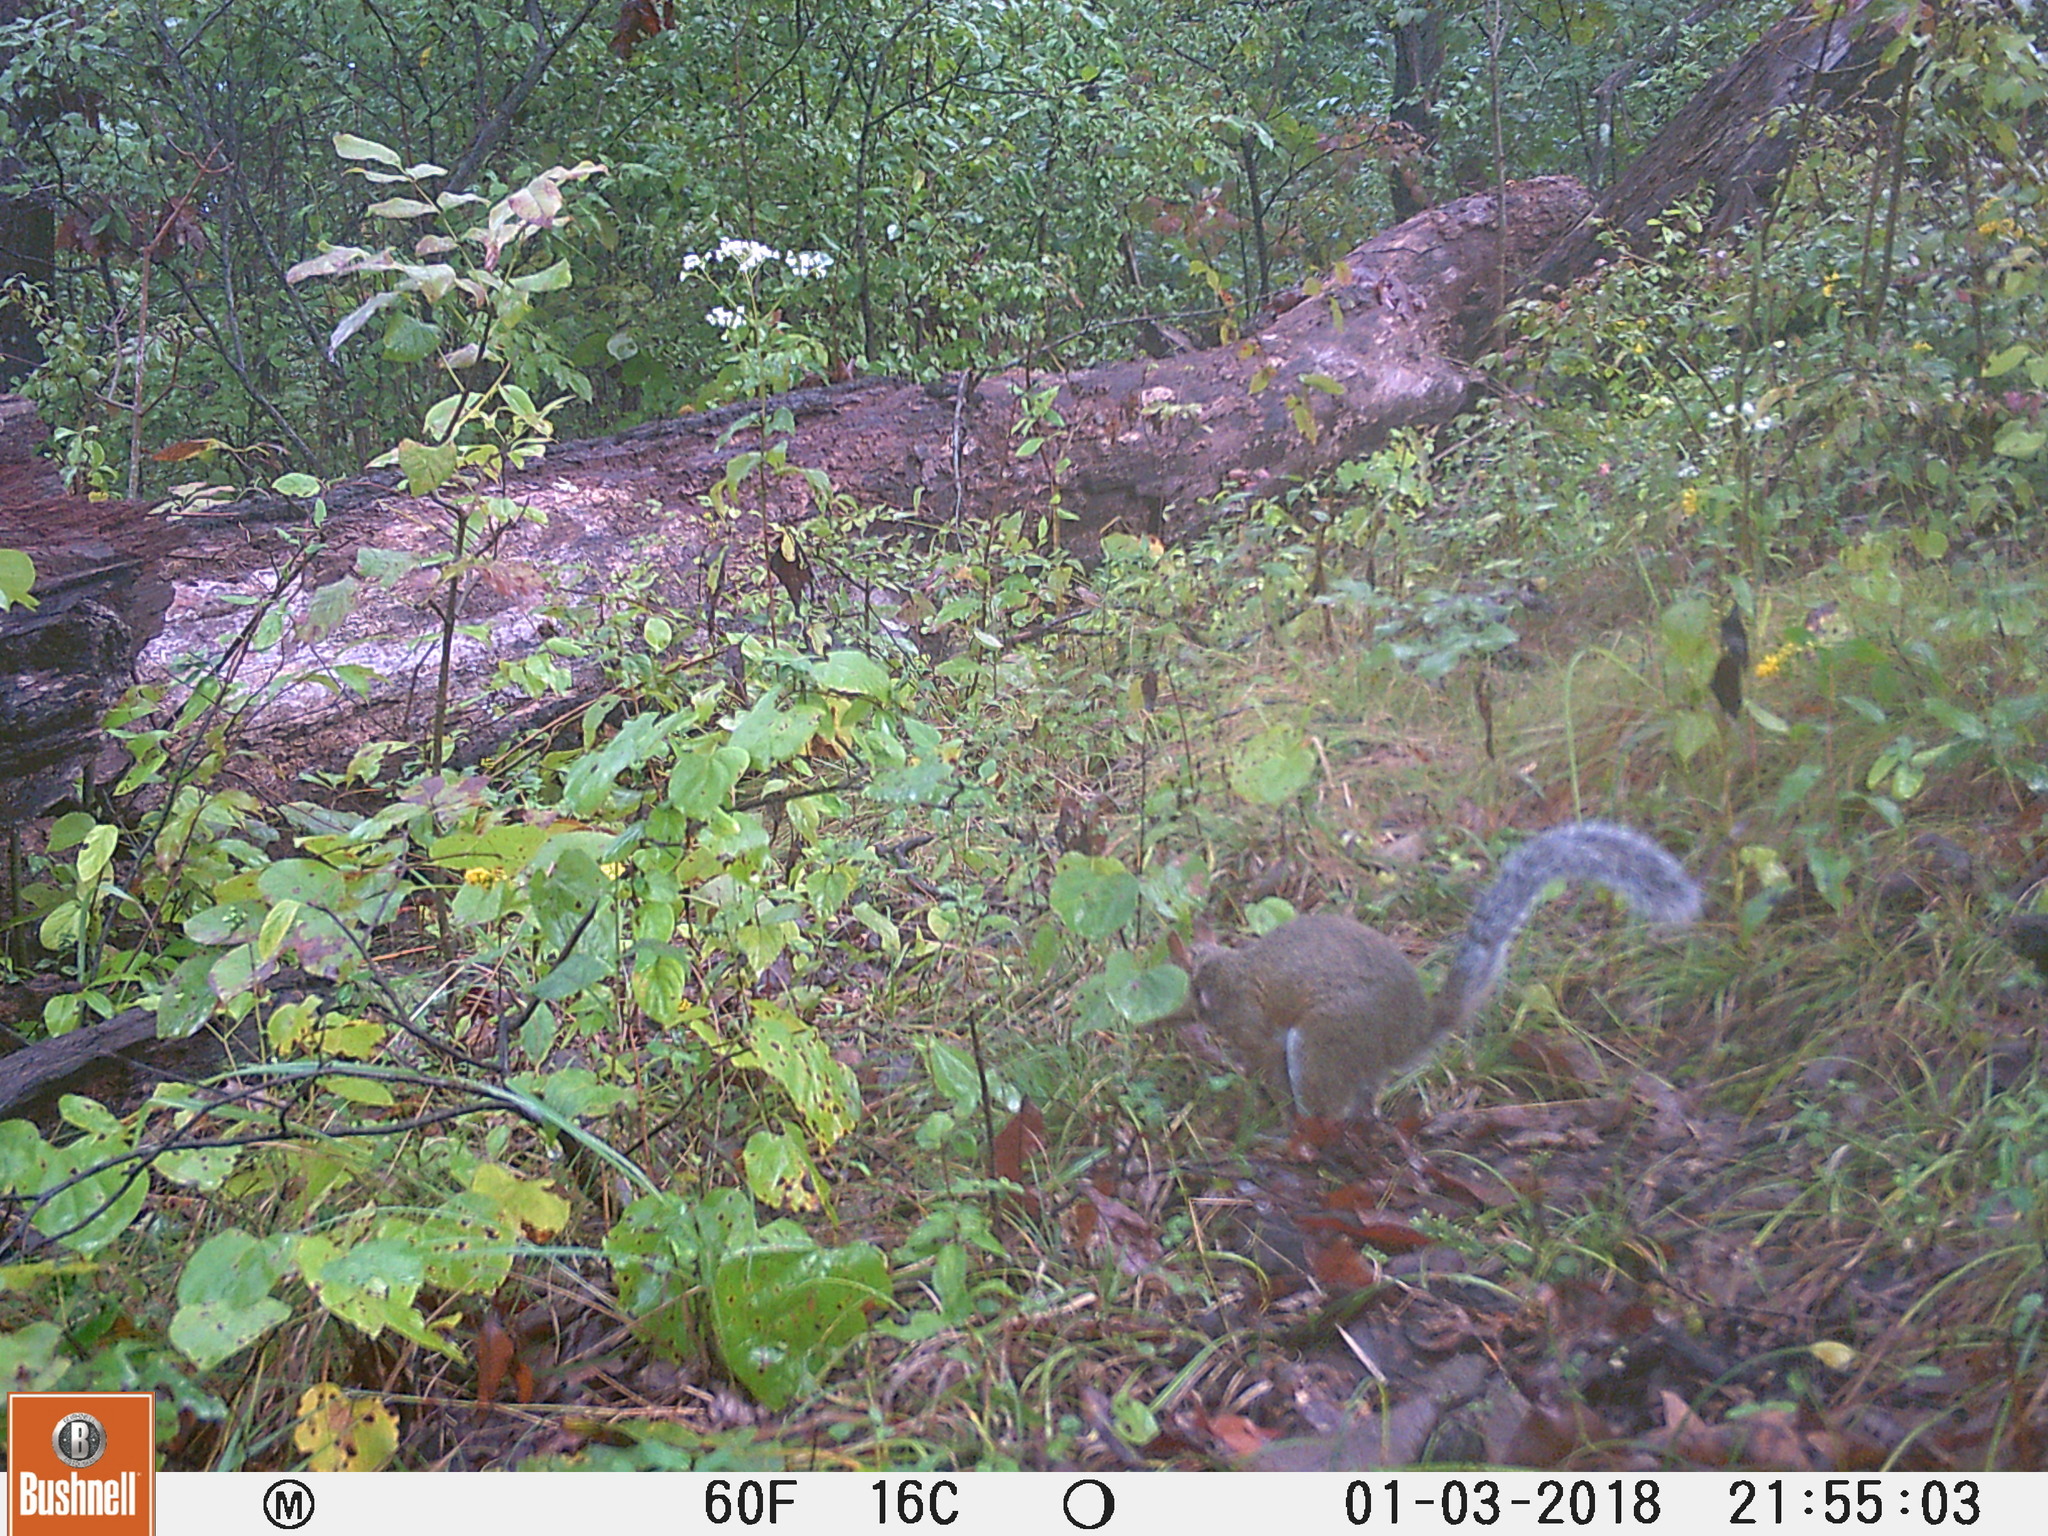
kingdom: Animalia
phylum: Chordata
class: Mammalia
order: Rodentia
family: Sciuridae
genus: Sciurus
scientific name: Sciurus carolinensis
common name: Eastern gray squirrel
